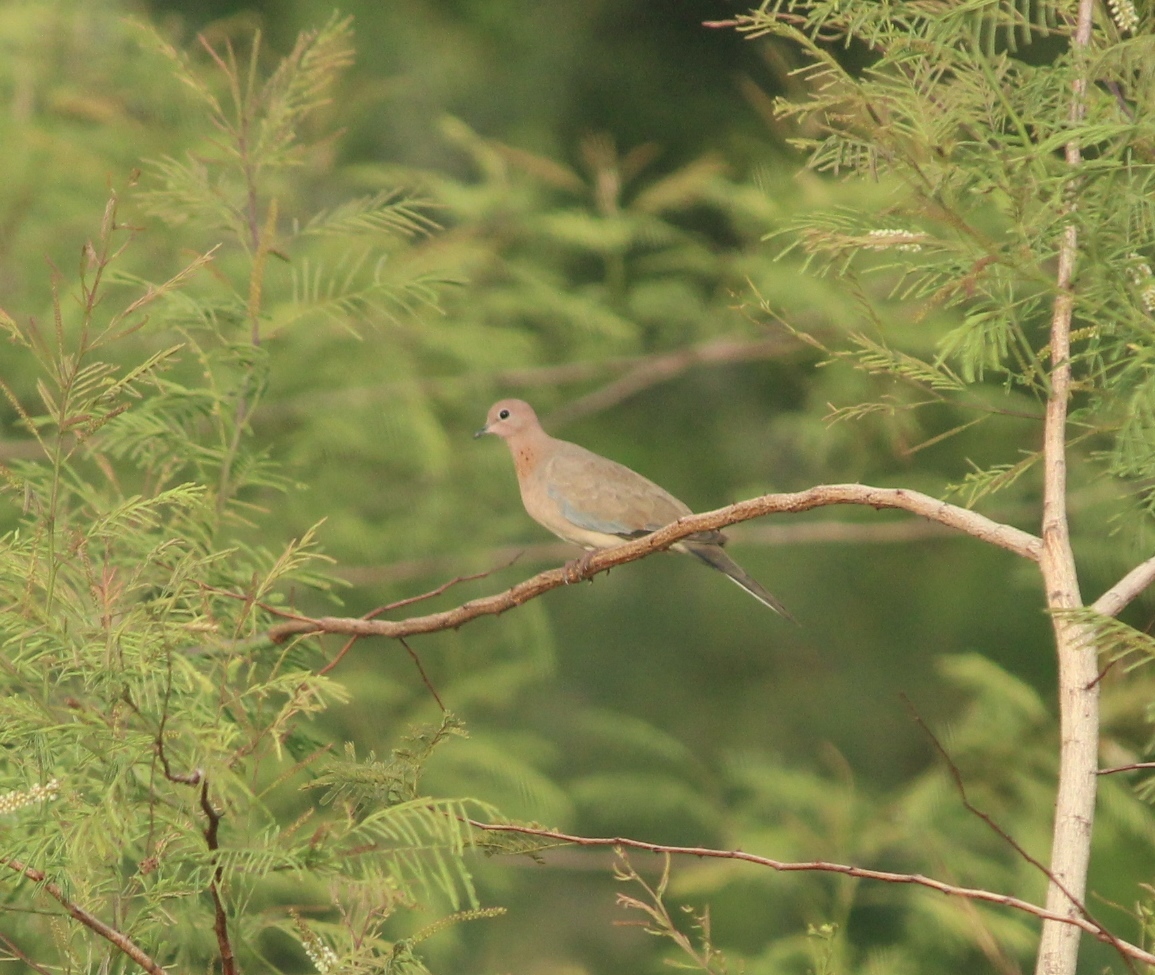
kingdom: Animalia
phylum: Chordata
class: Aves
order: Columbiformes
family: Columbidae
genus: Spilopelia
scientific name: Spilopelia senegalensis
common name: Laughing dove
